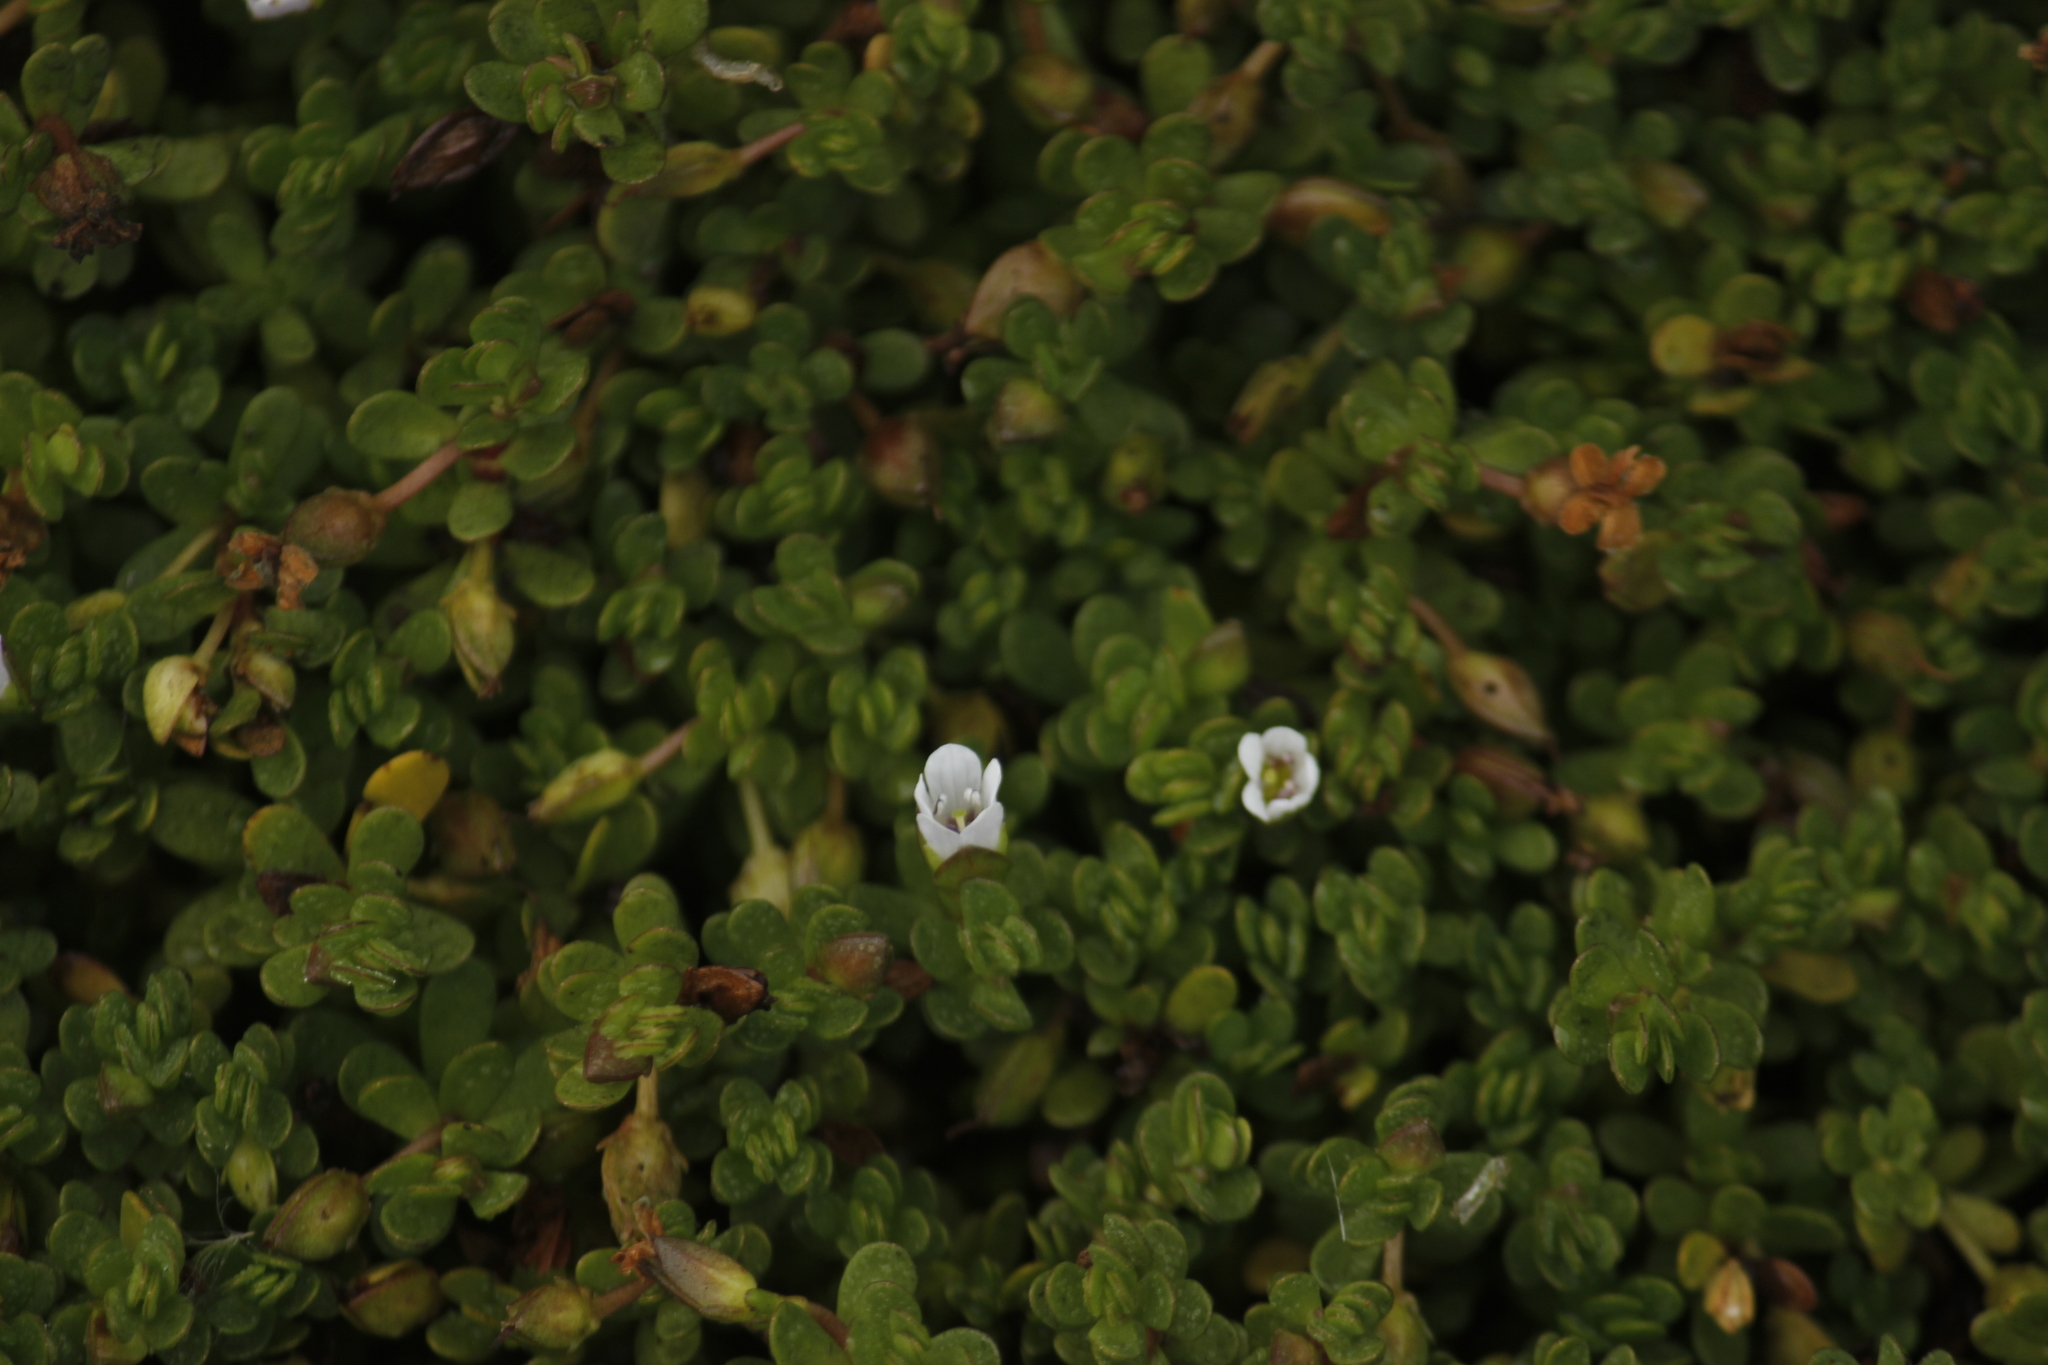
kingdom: Plantae
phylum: Tracheophyta
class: Magnoliopsida
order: Lamiales
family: Plantaginaceae
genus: Bacopa
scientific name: Bacopa monnieri
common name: Indian-pennywort
